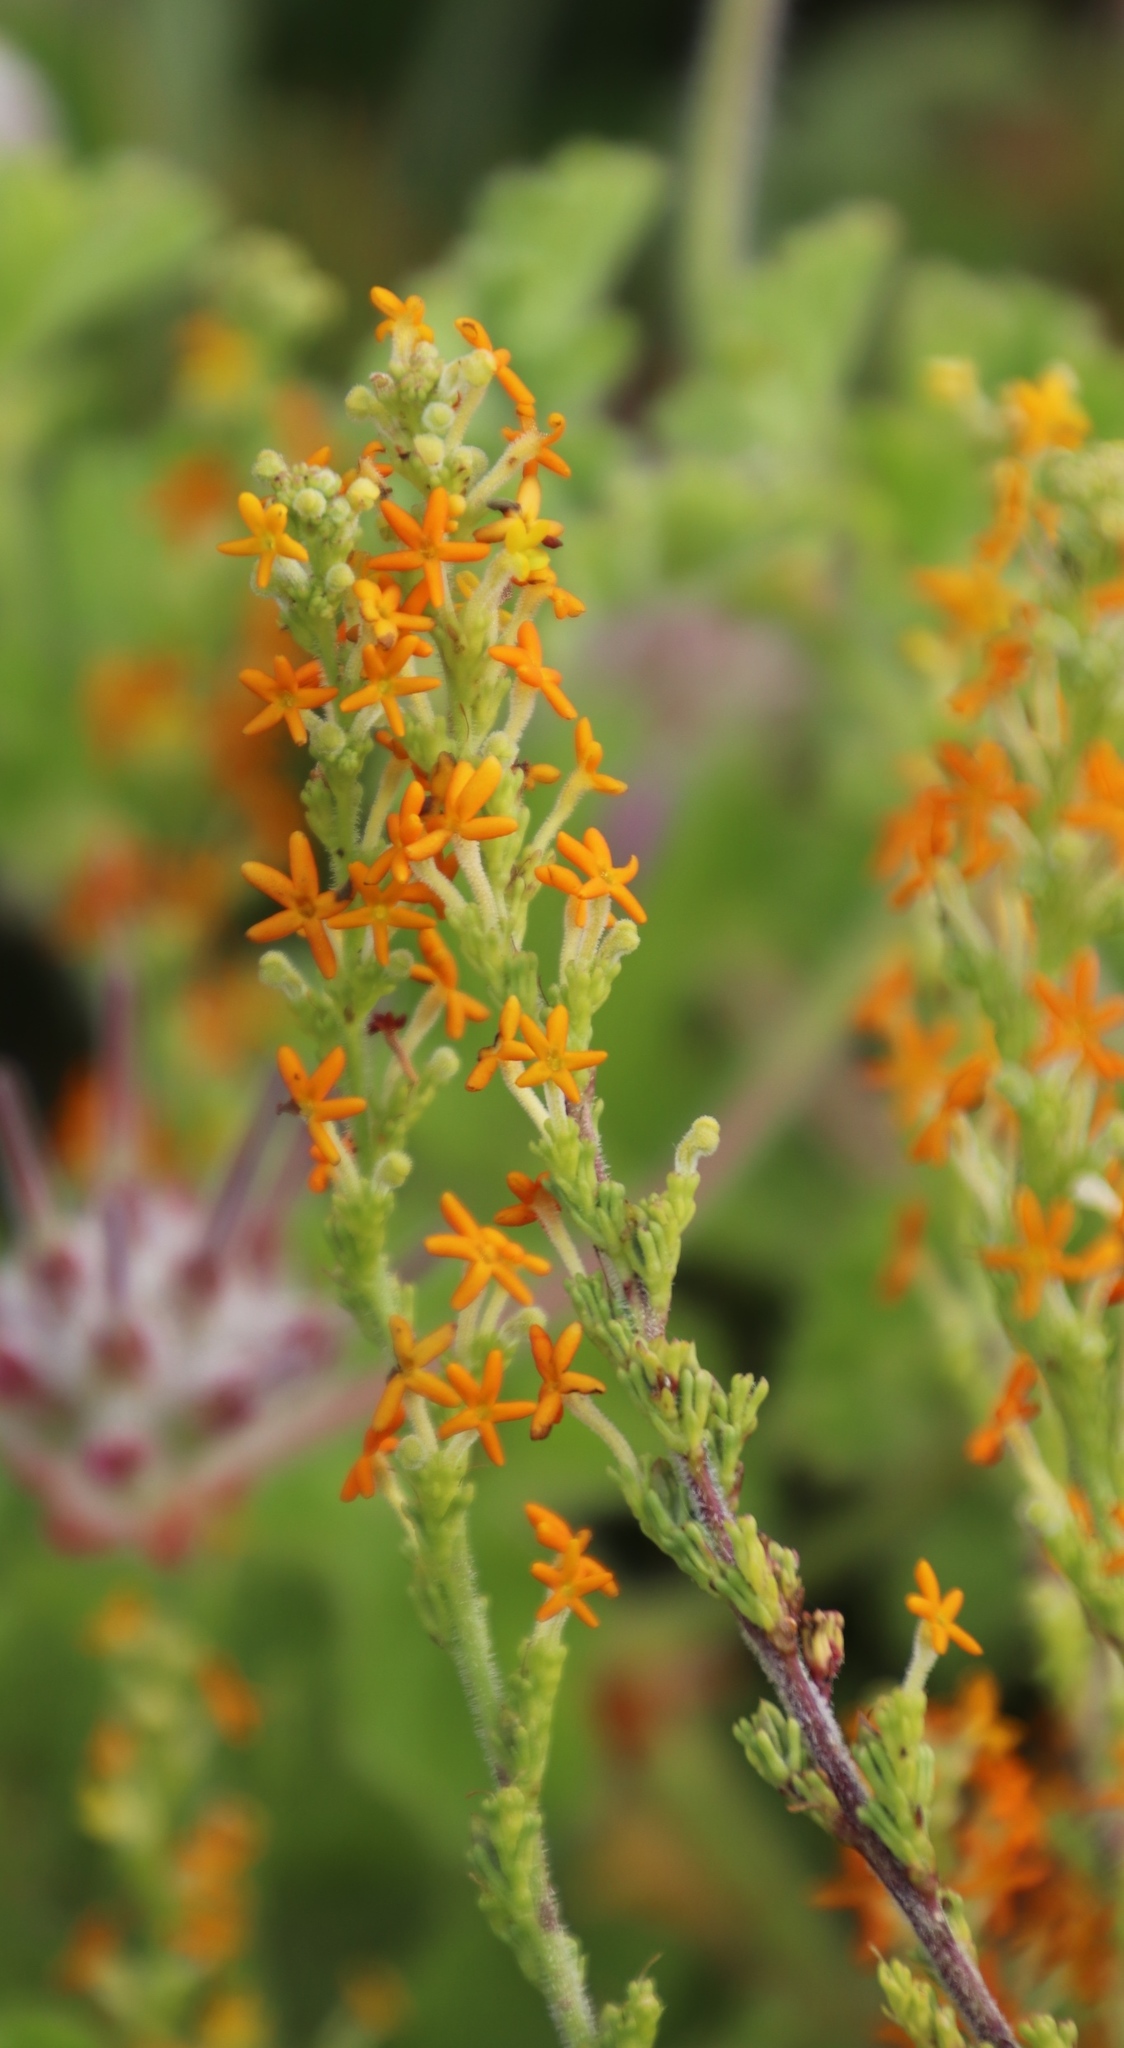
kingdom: Plantae
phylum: Tracheophyta
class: Magnoliopsida
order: Lamiales
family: Scrophulariaceae
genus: Manulea
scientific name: Manulea rubra
